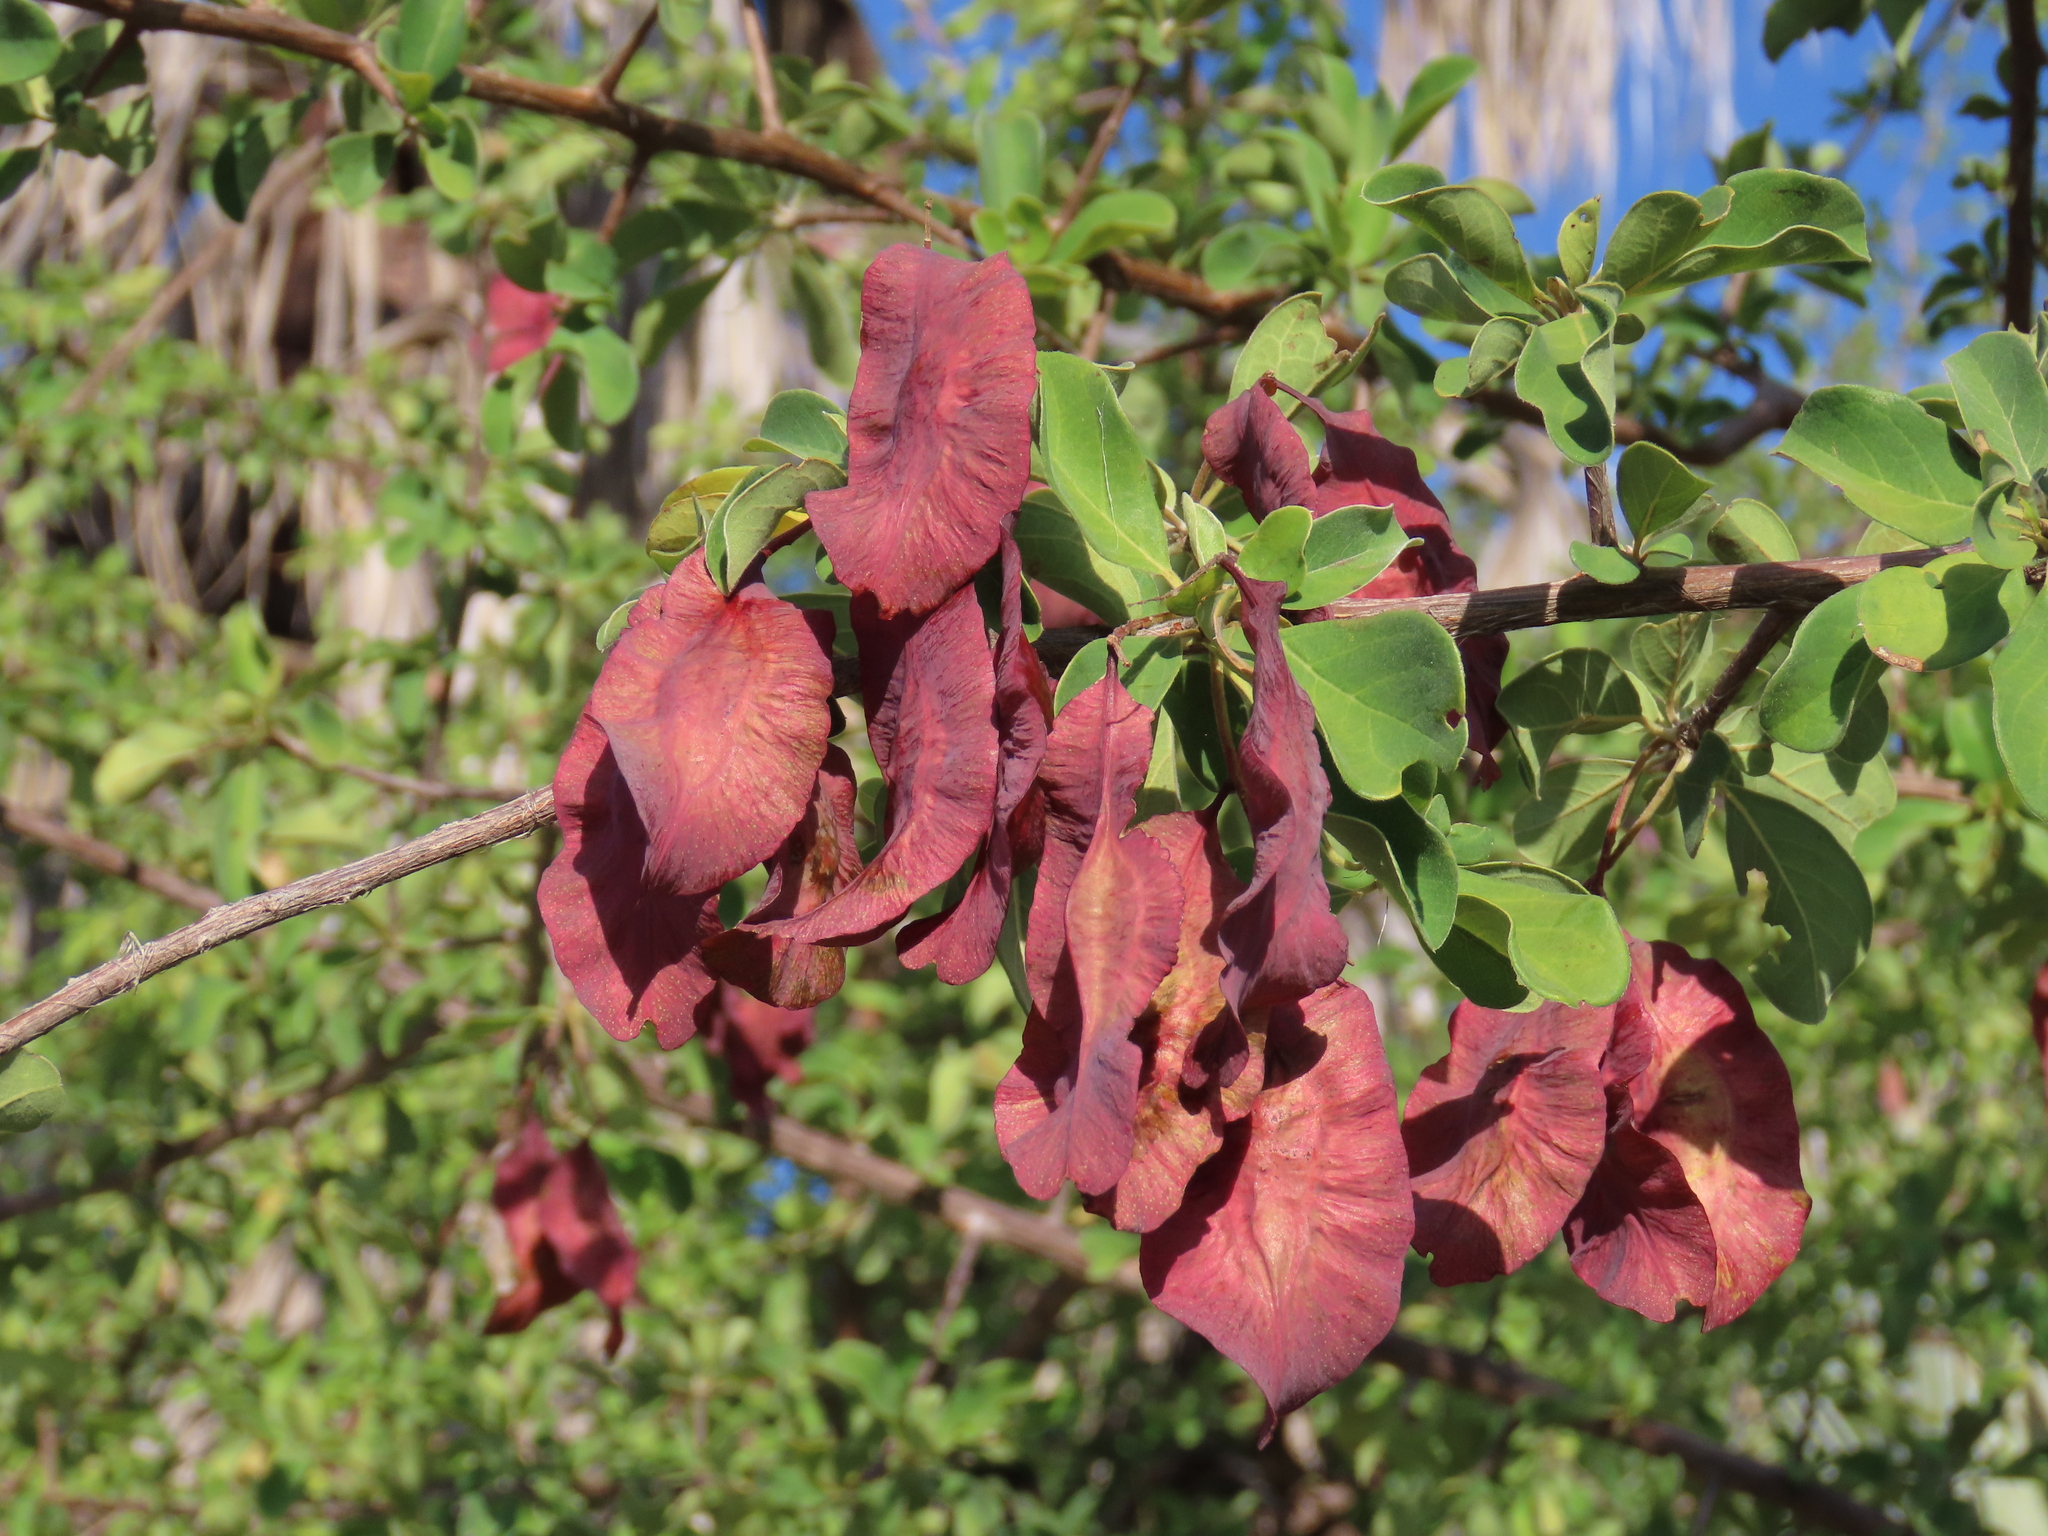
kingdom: Plantae
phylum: Tracheophyta
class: Magnoliopsida
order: Myrtales
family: Combretaceae
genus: Terminalia
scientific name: Terminalia prunioides
